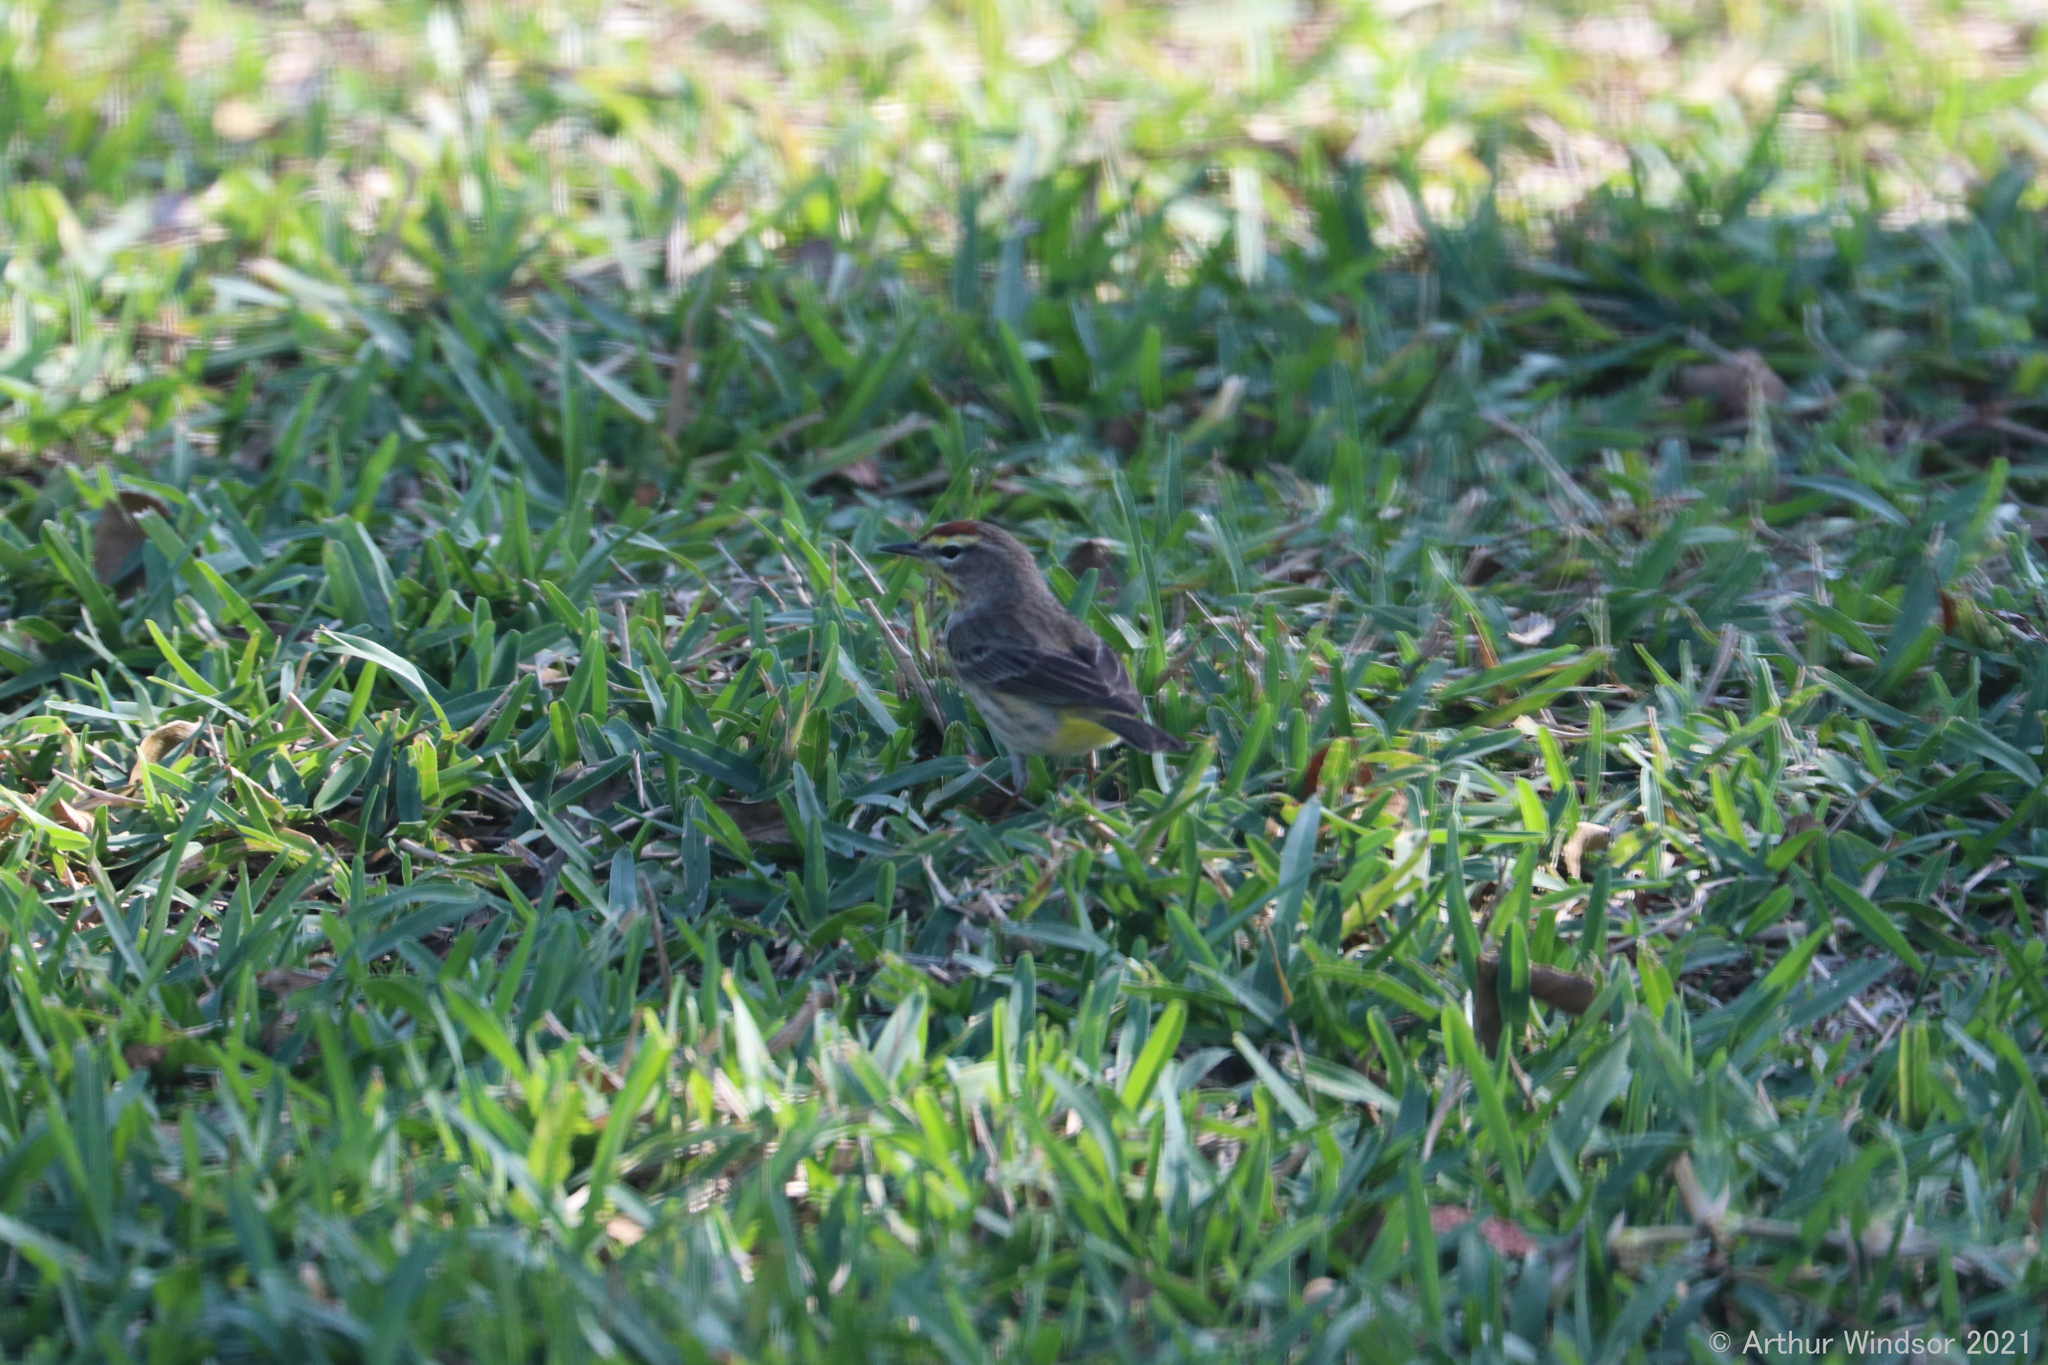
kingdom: Animalia
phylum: Chordata
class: Aves
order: Passeriformes
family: Parulidae
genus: Setophaga
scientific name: Setophaga palmarum
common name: Palm warbler
